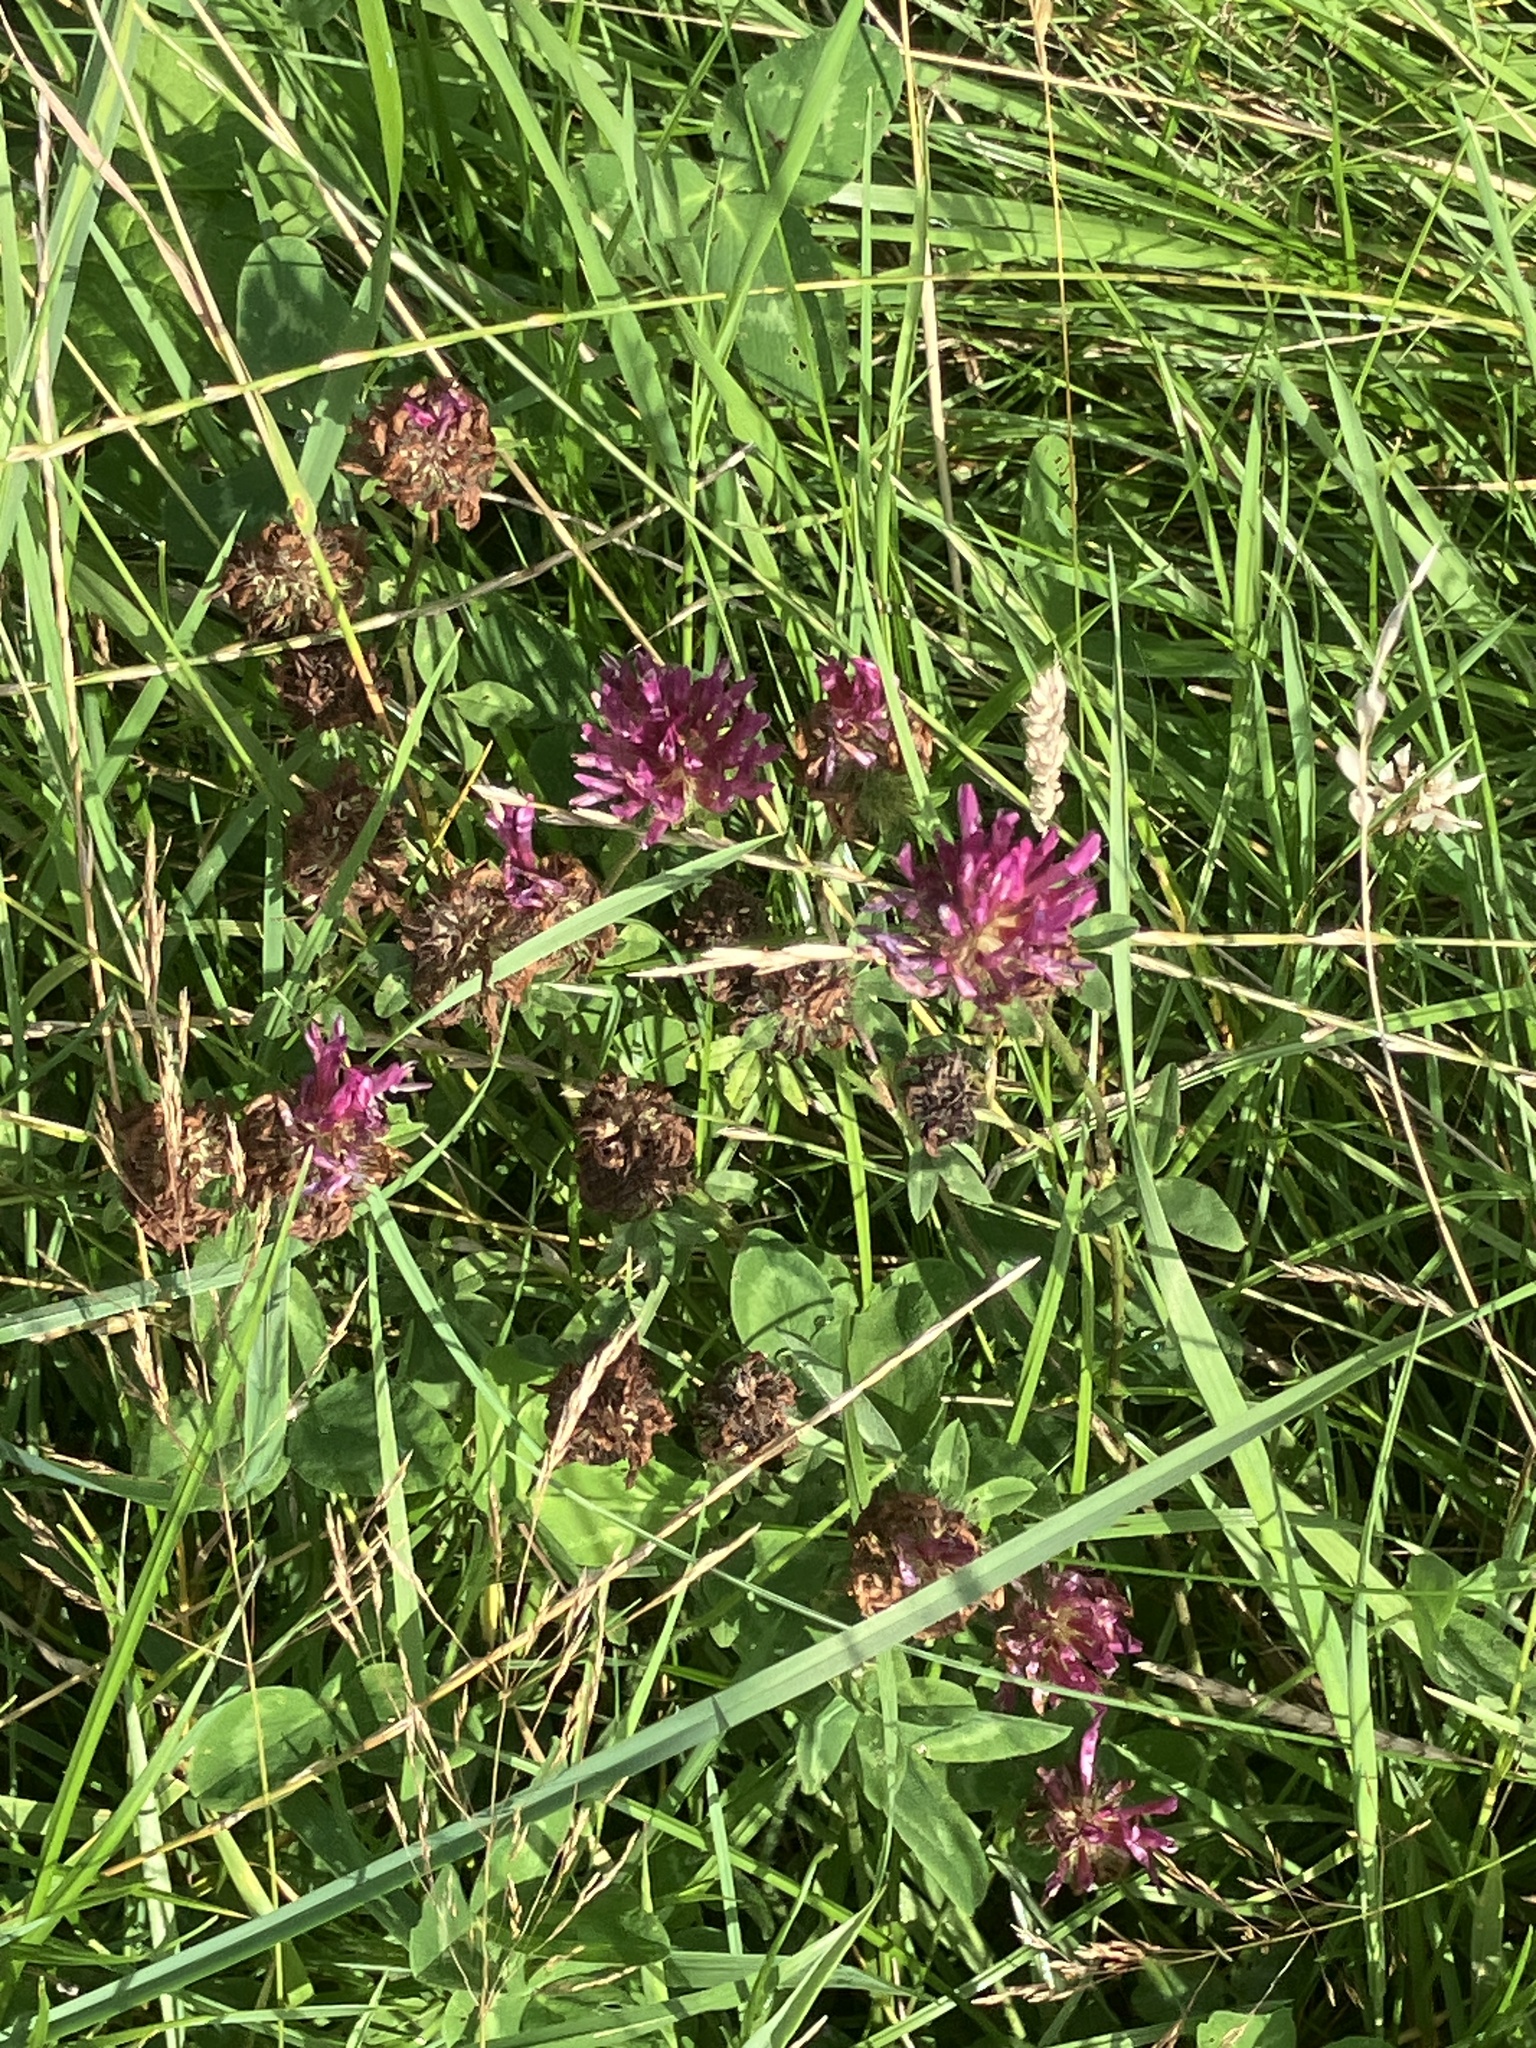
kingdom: Plantae
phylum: Tracheophyta
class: Magnoliopsida
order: Fabales
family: Fabaceae
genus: Trifolium
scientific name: Trifolium pratense
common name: Red clover
